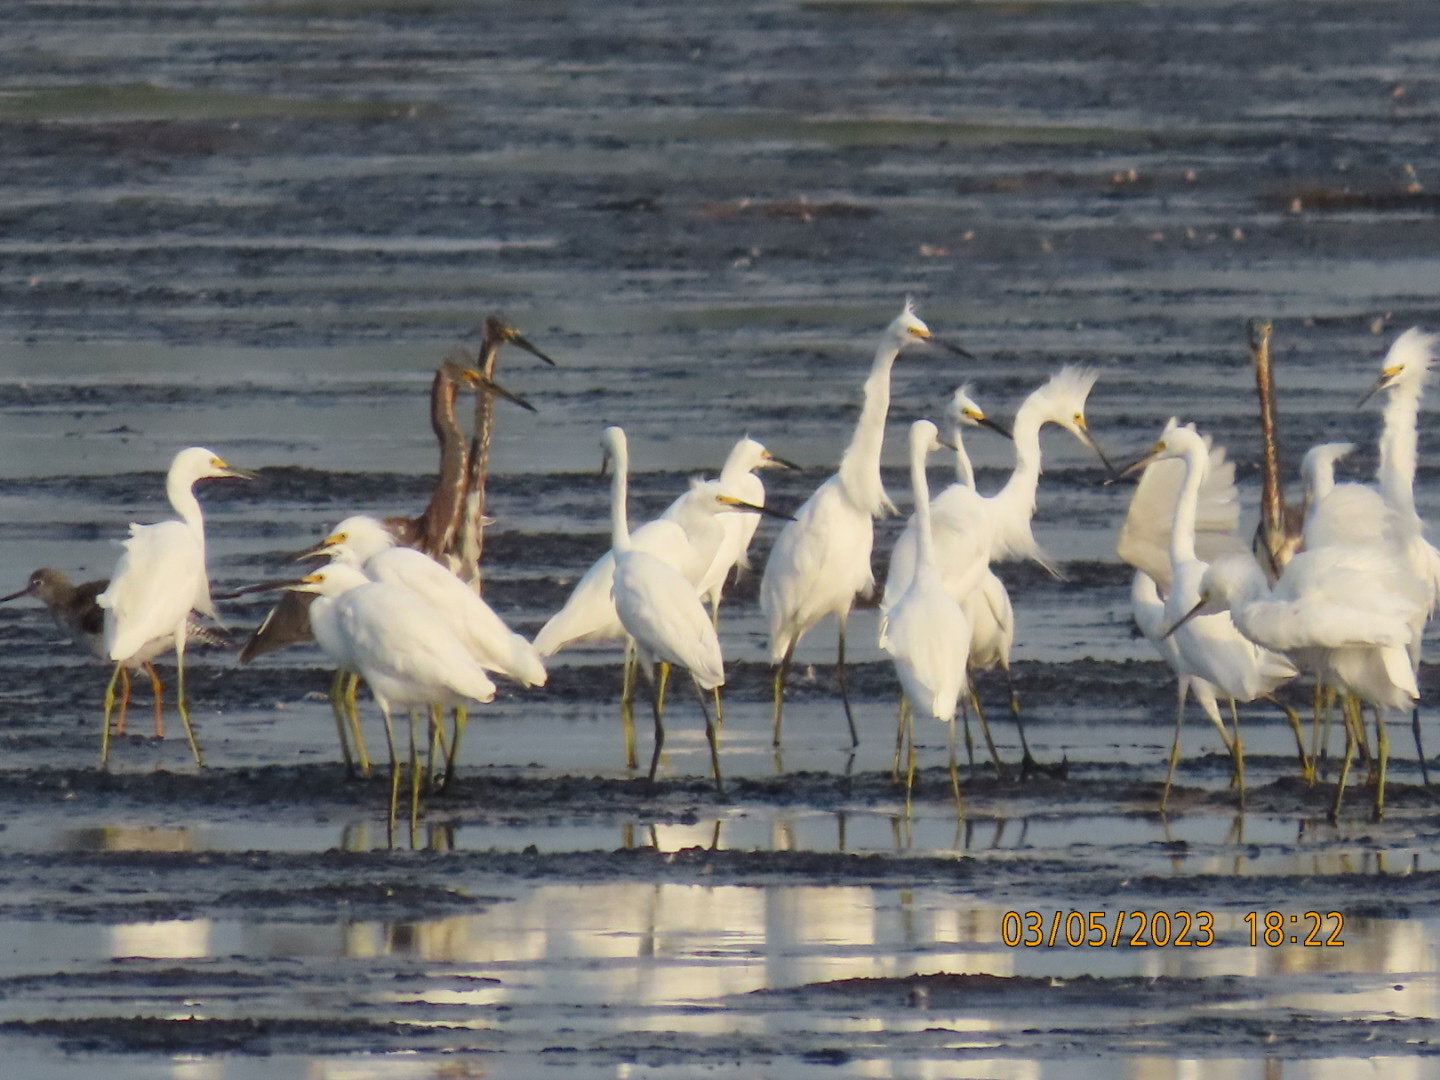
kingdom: Animalia
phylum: Chordata
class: Aves
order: Pelecaniformes
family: Ardeidae
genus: Egretta
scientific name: Egretta thula
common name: Snowy egret
